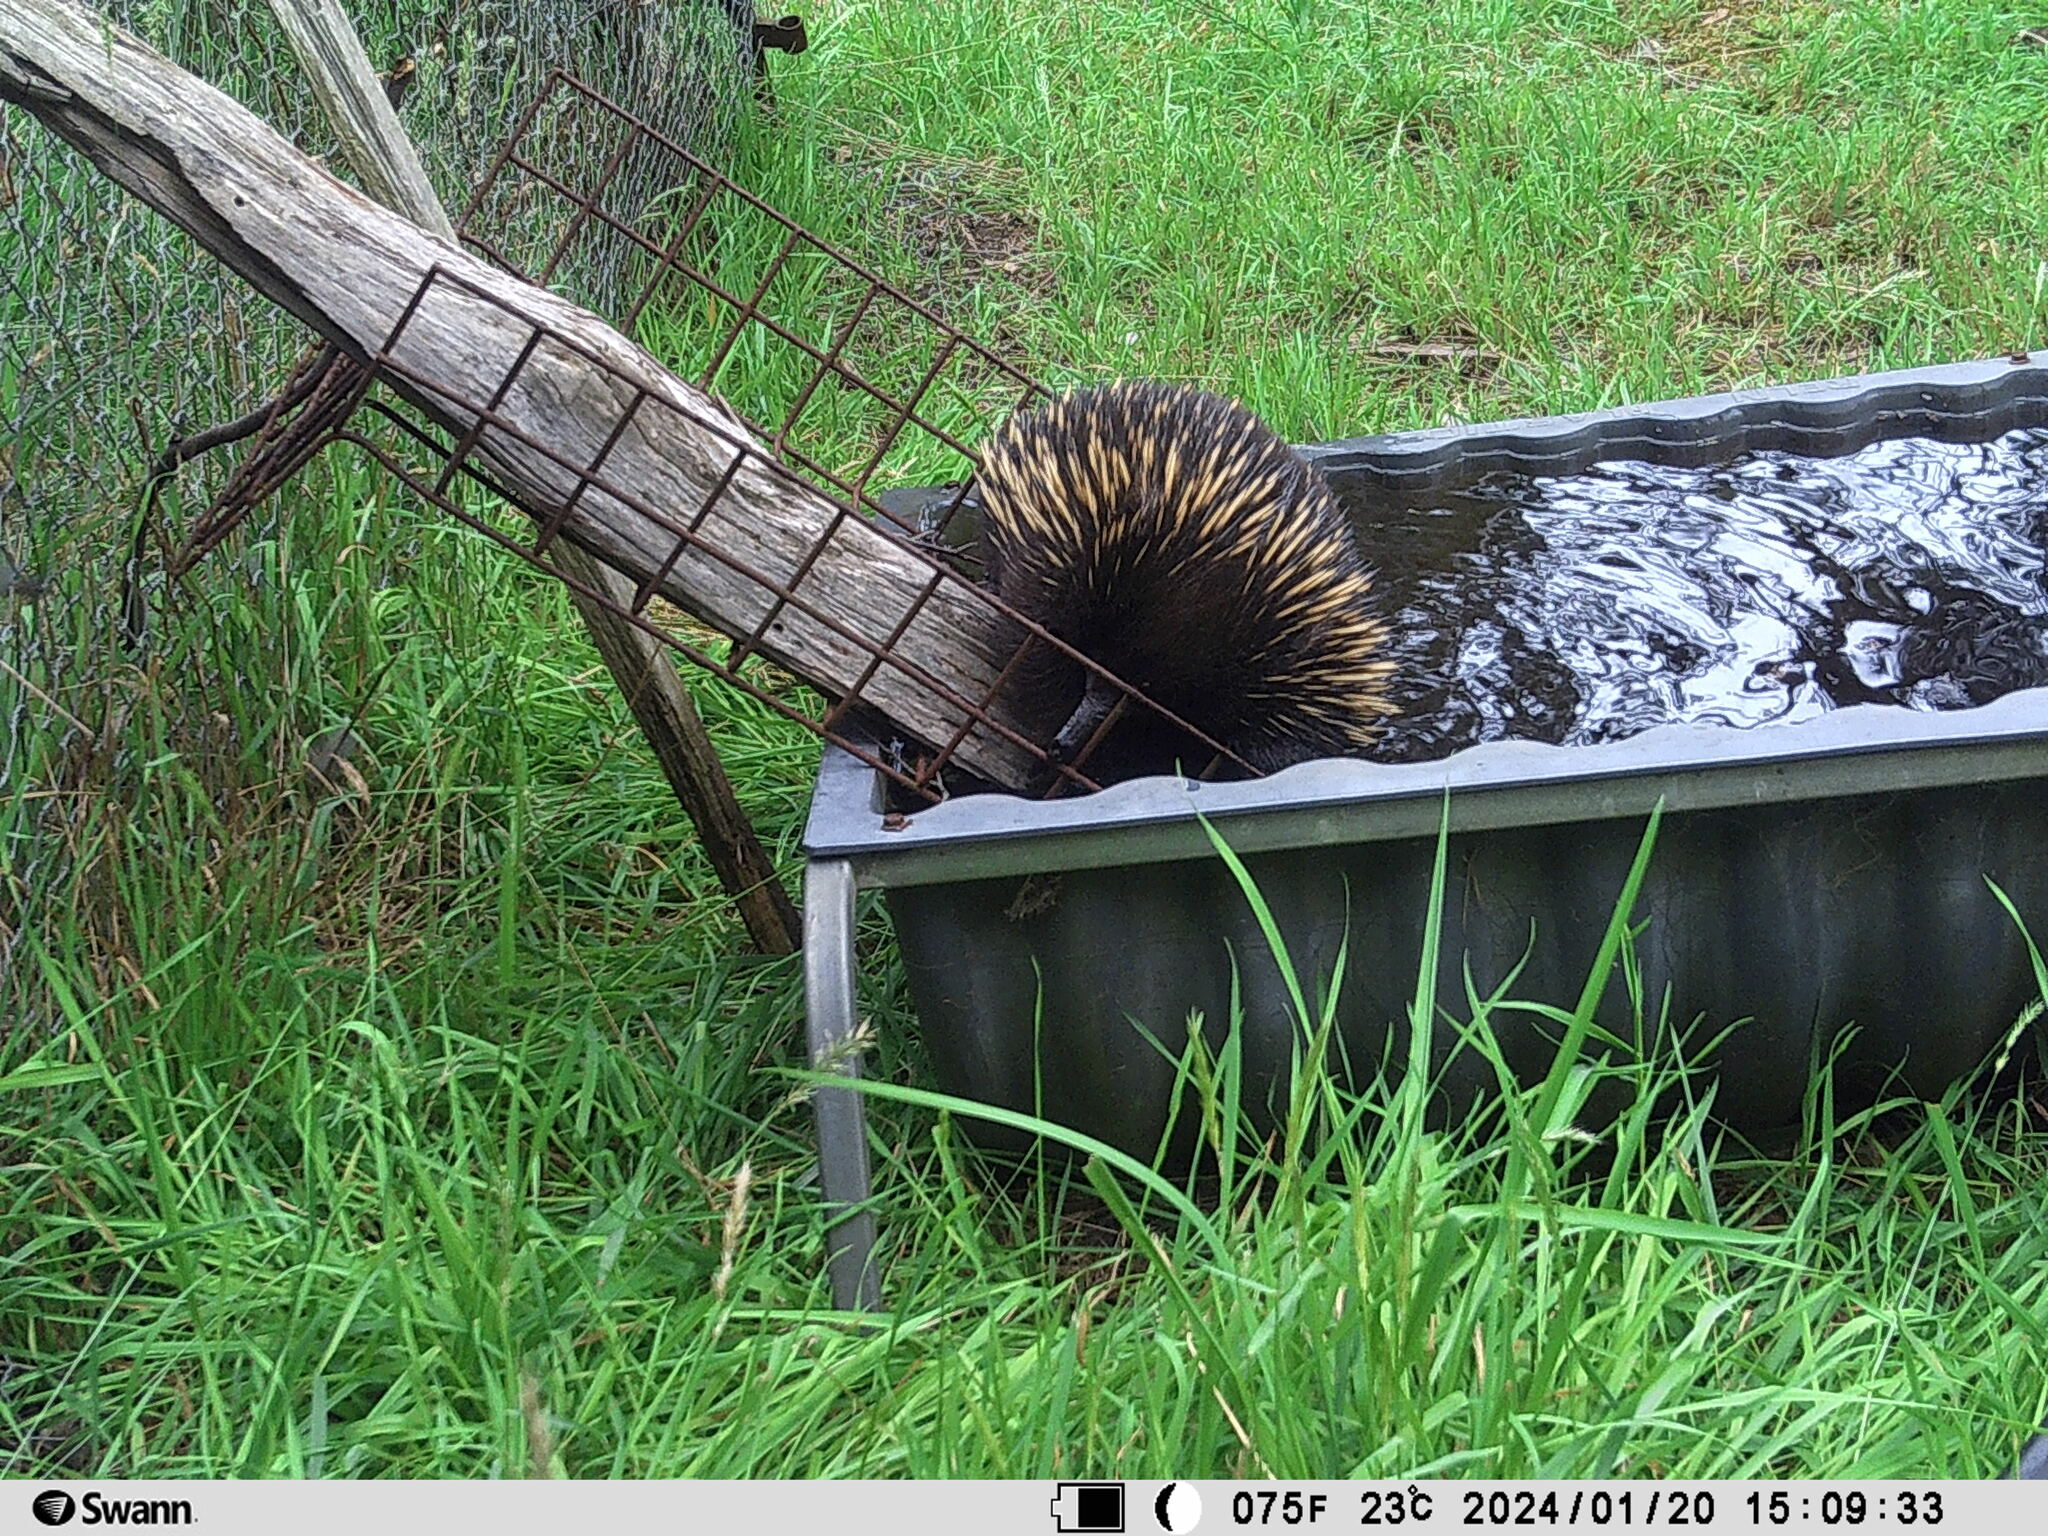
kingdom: Animalia
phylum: Chordata
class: Mammalia
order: Monotremata
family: Tachyglossidae
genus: Tachyglossus
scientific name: Tachyglossus aculeatus
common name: Short-beaked echidna
